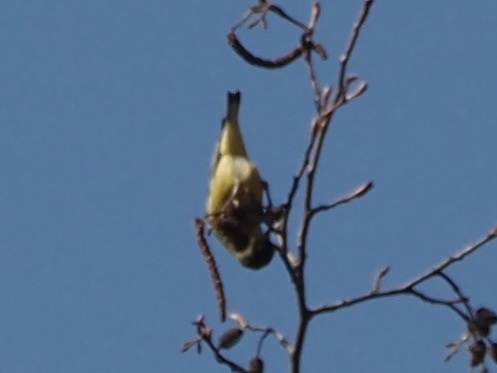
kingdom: Animalia
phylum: Chordata
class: Aves
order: Passeriformes
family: Fringillidae
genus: Spinus
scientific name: Spinus psaltria
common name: Lesser goldfinch
